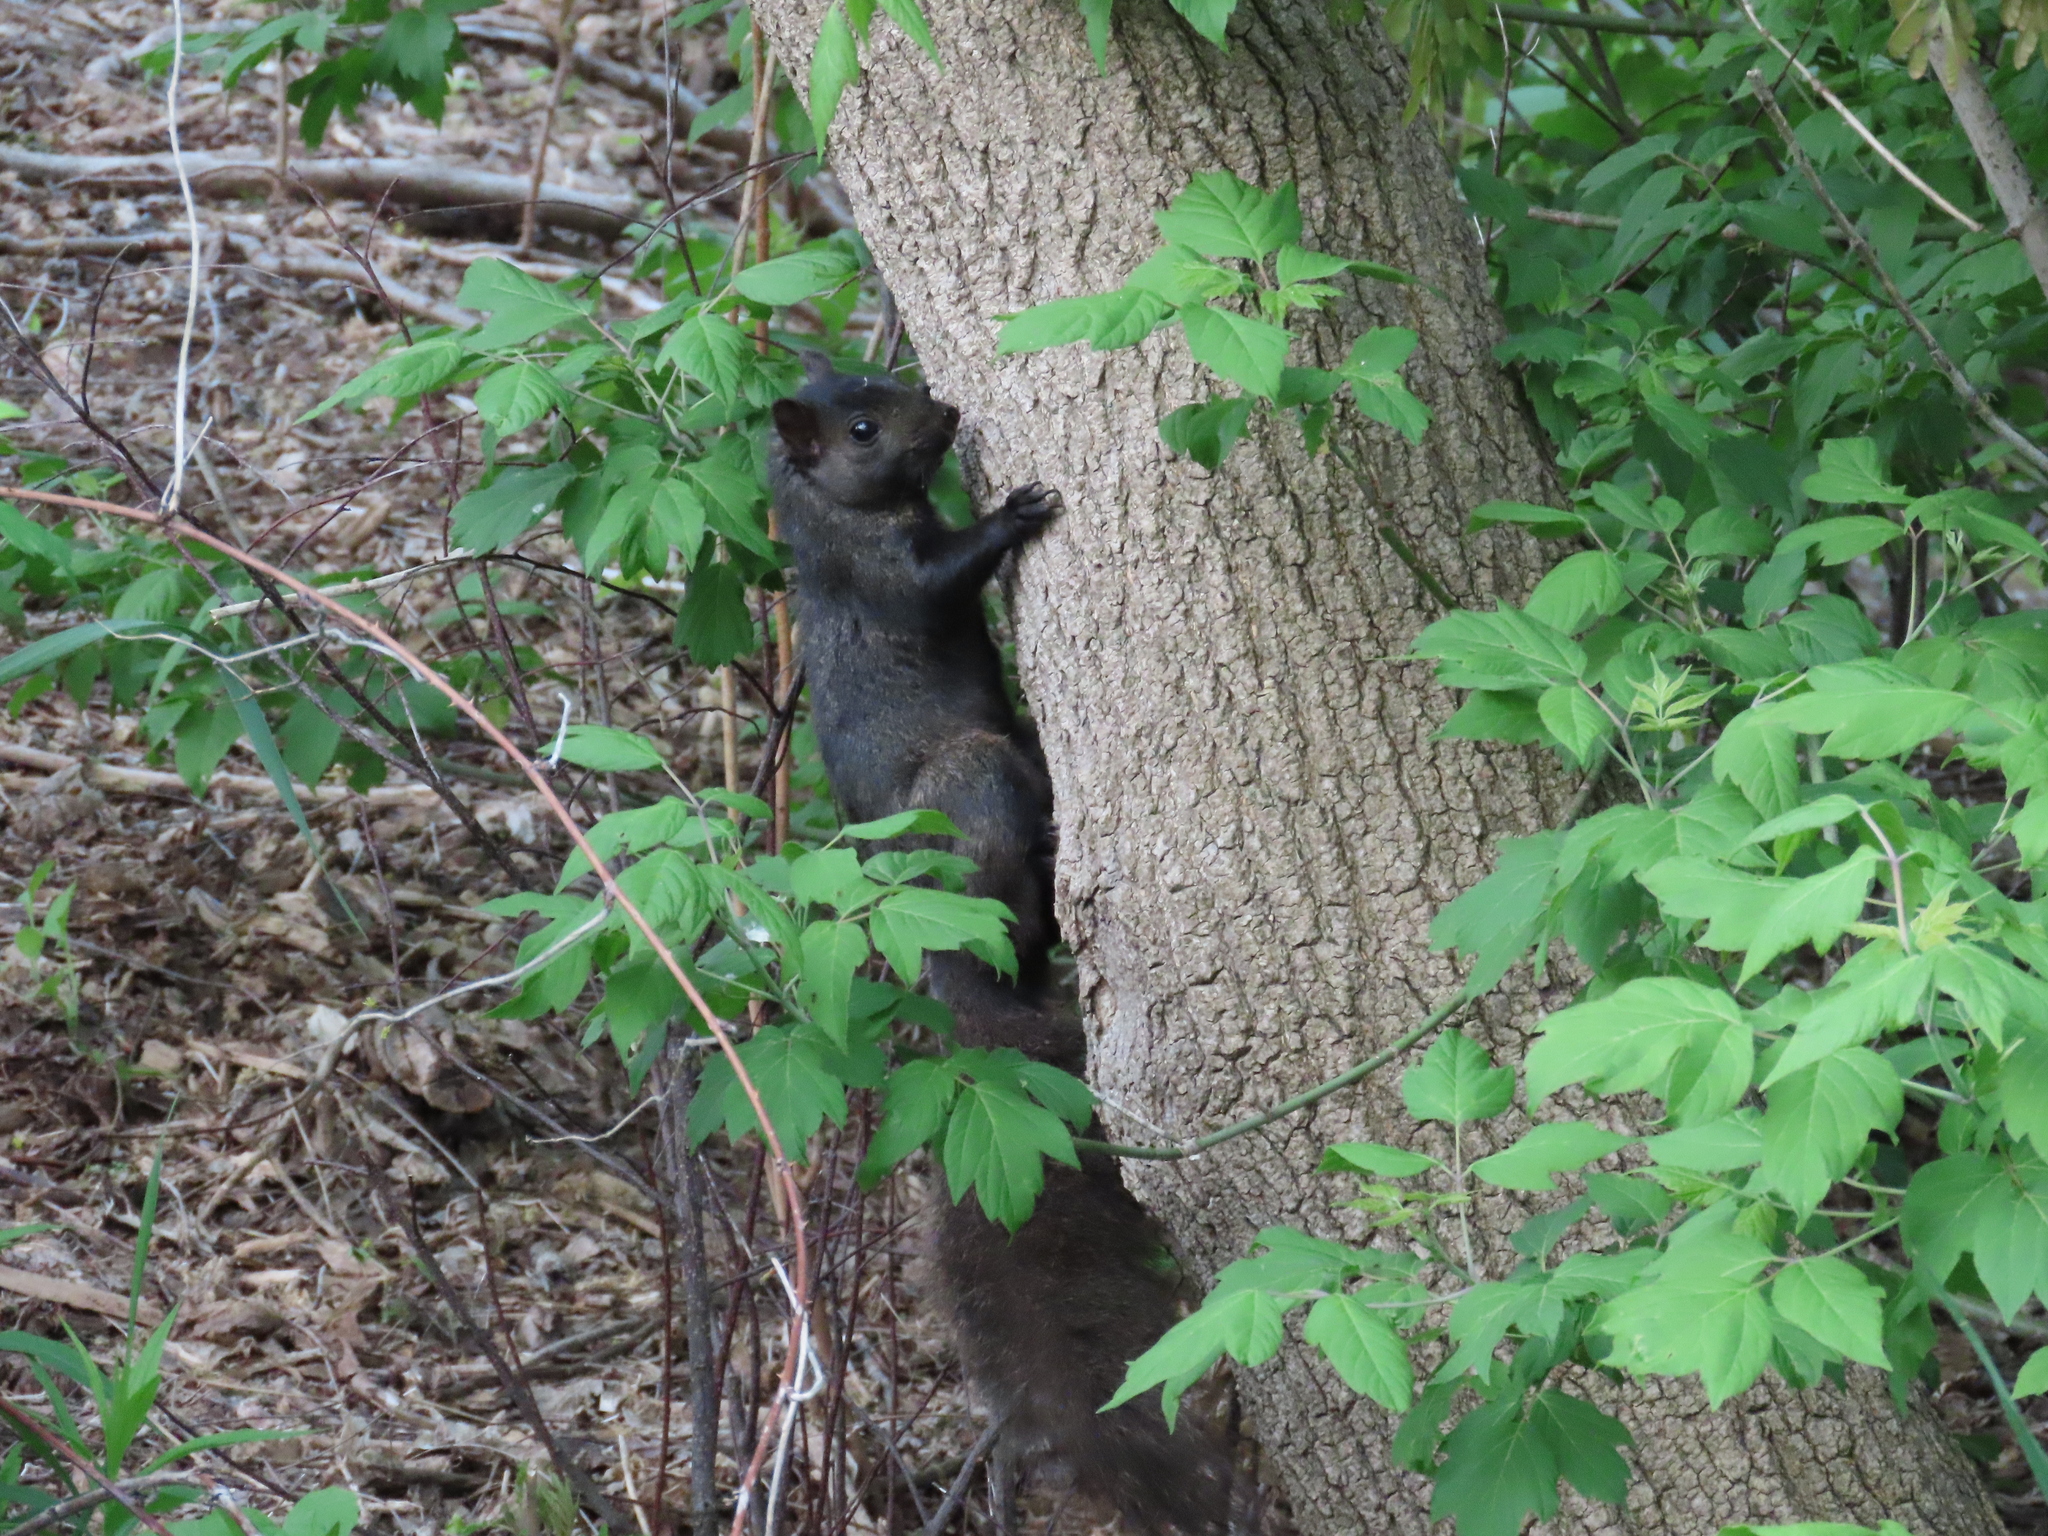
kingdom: Animalia
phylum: Chordata
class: Mammalia
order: Rodentia
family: Sciuridae
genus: Sciurus
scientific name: Sciurus carolinensis
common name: Eastern gray squirrel
